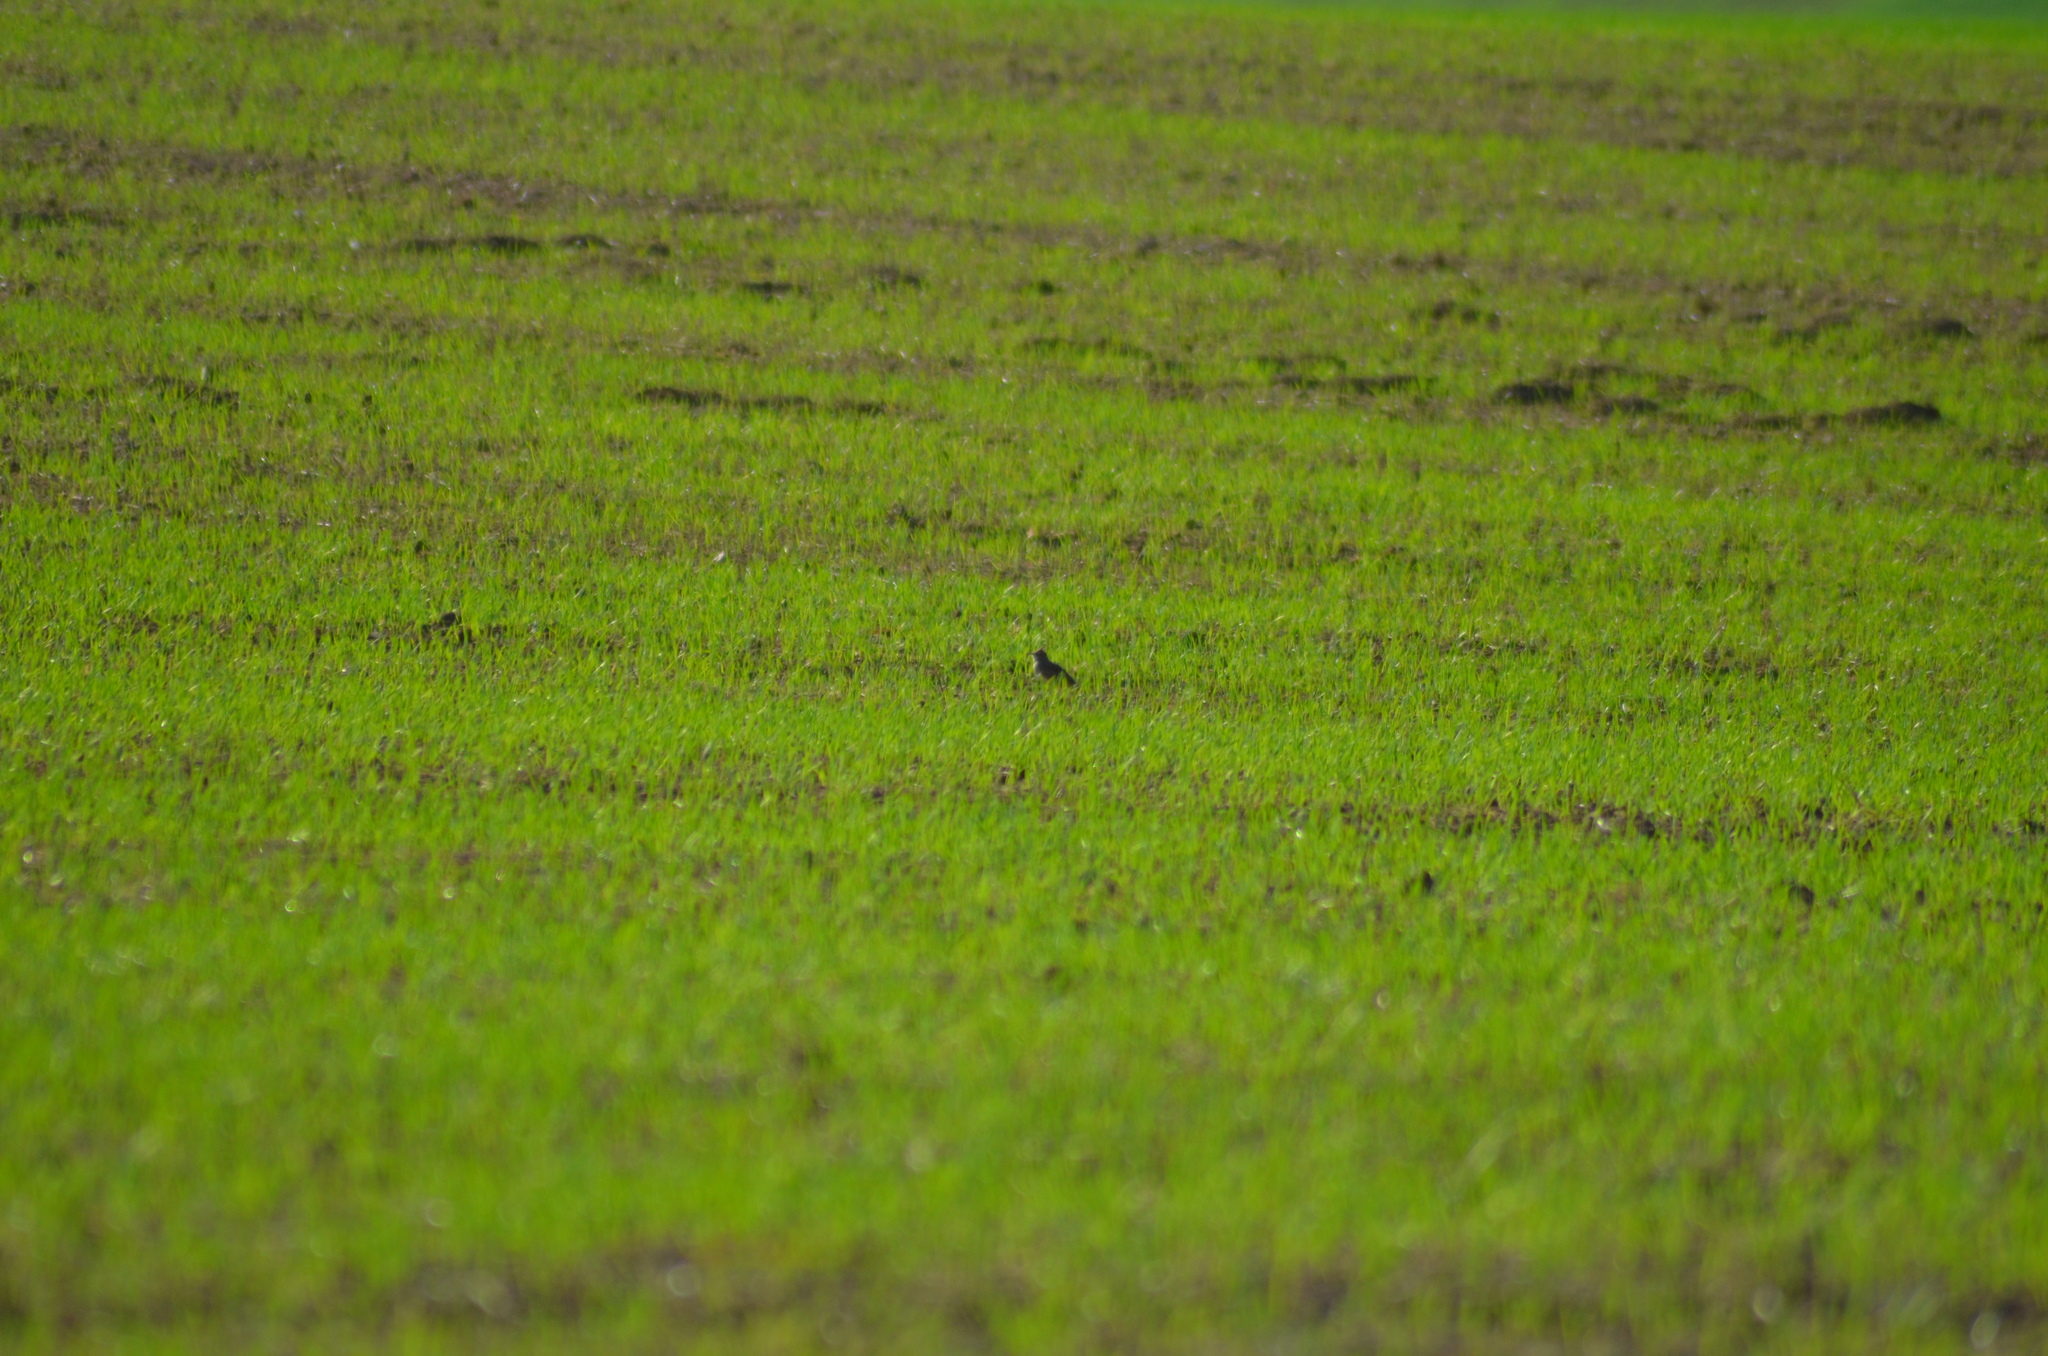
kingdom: Animalia
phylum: Chordata
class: Aves
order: Passeriformes
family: Alaudidae
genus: Galerida
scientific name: Galerida cristata
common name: Crested lark
